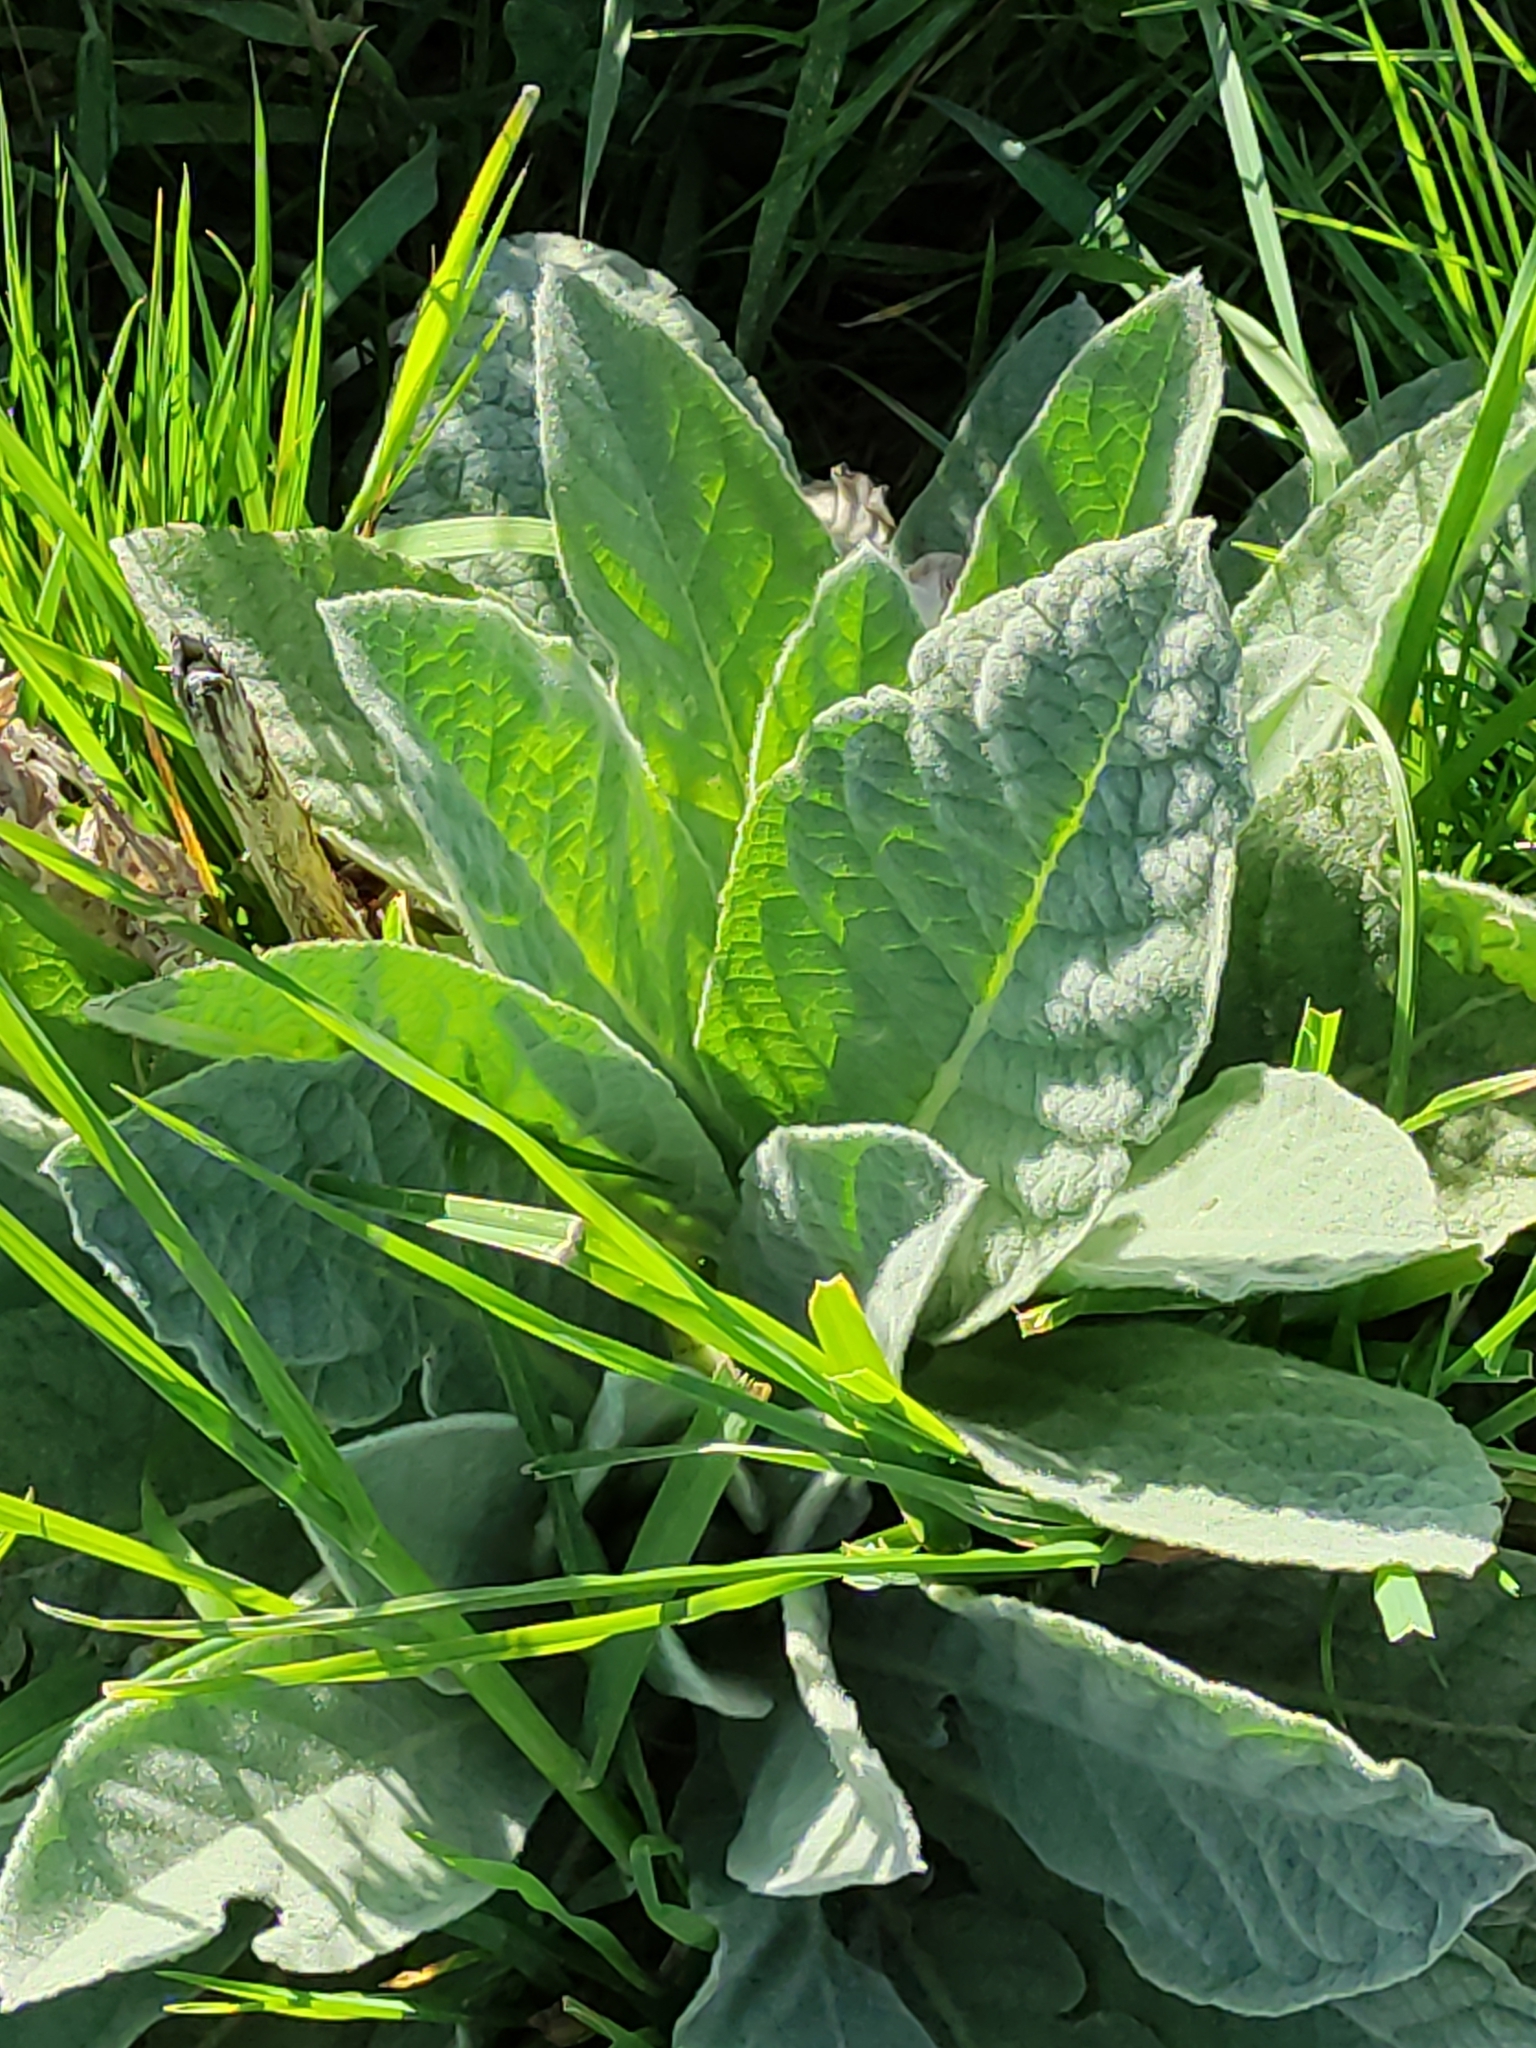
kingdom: Plantae
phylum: Tracheophyta
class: Magnoliopsida
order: Lamiales
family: Scrophulariaceae
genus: Verbascum
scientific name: Verbascum thapsus
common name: Common mullein
